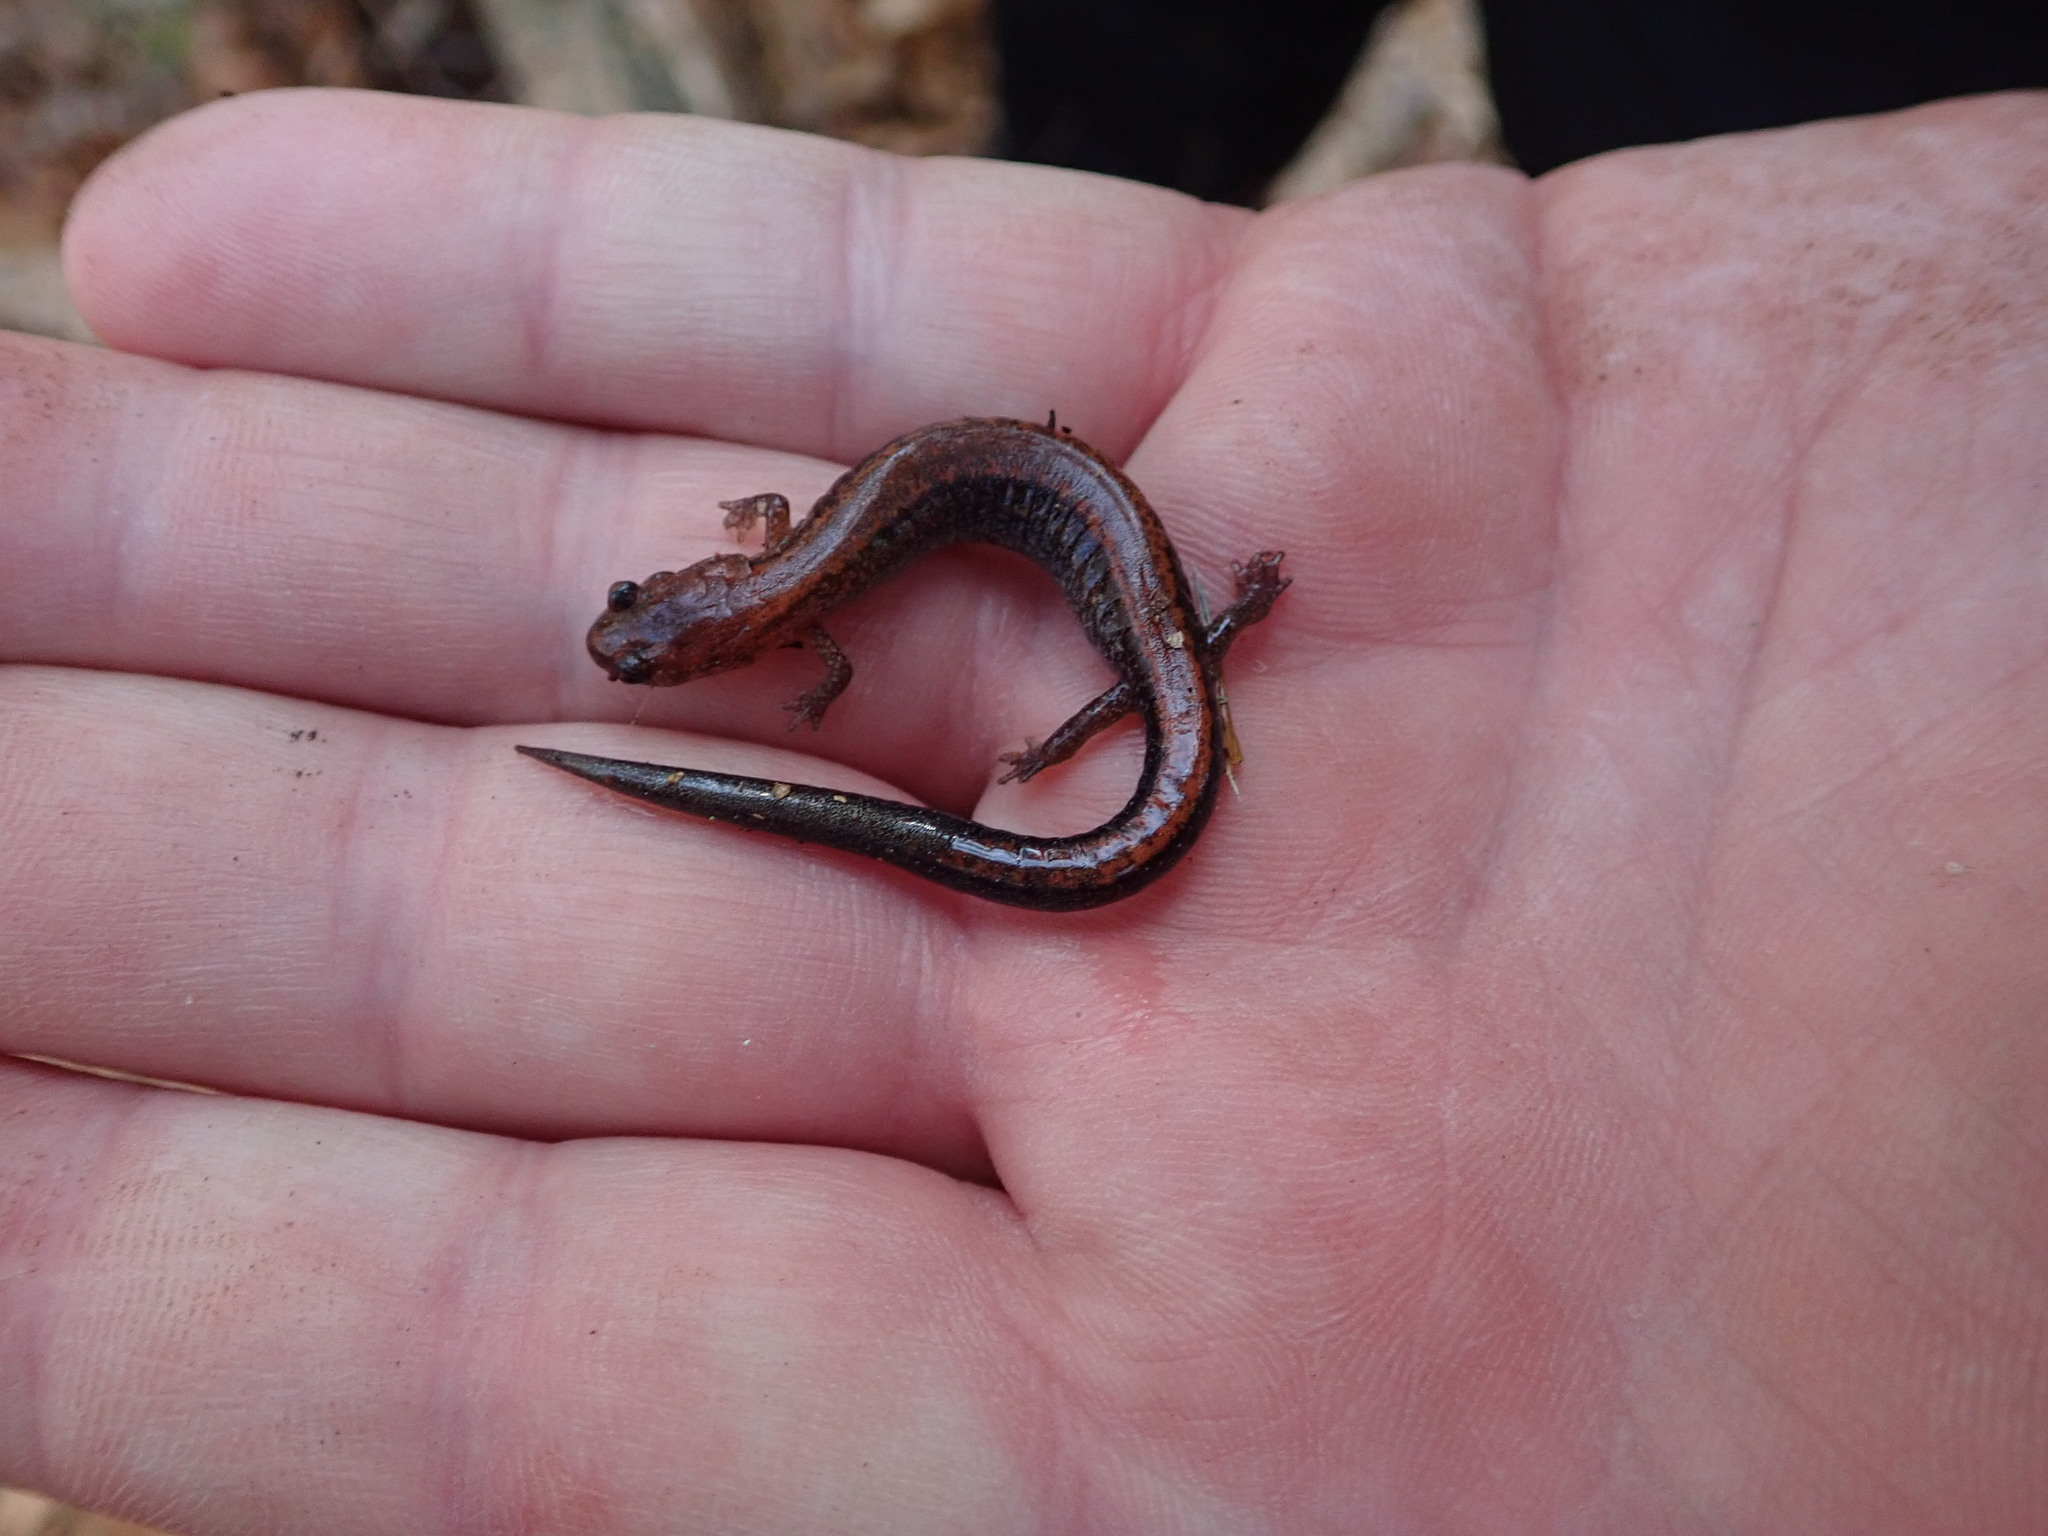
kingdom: Animalia
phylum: Chordata
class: Amphibia
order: Caudata
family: Plethodontidae
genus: Plethodon
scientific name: Plethodon cinereus
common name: Redback salamander
